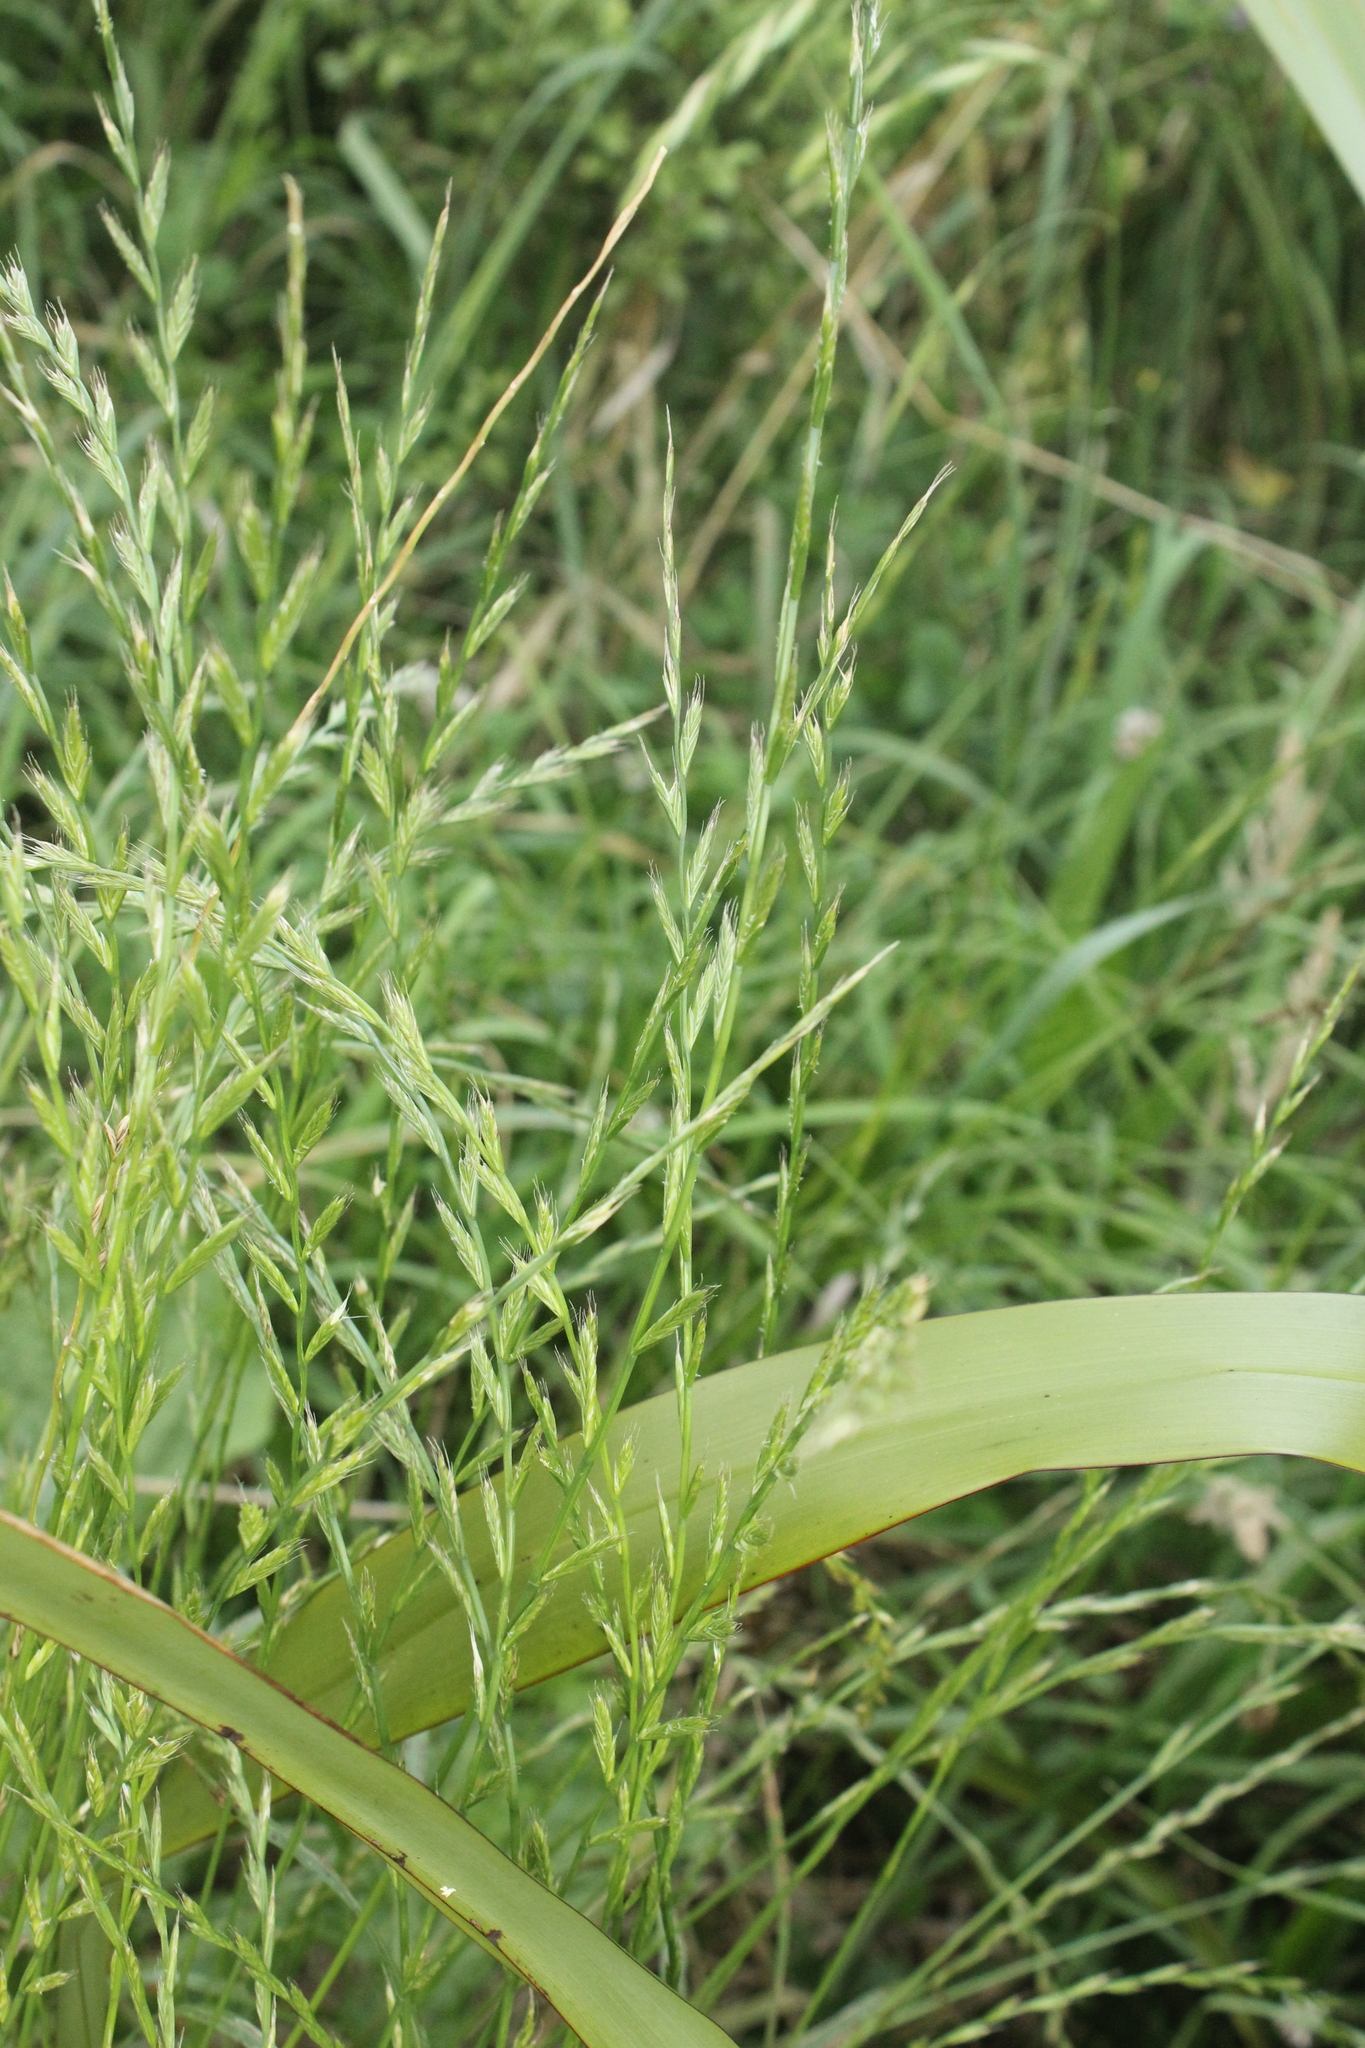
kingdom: Plantae
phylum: Tracheophyta
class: Liliopsida
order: Poales
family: Poaceae
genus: Lolium
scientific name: Lolium multiflorum
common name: Annual ryegrass
